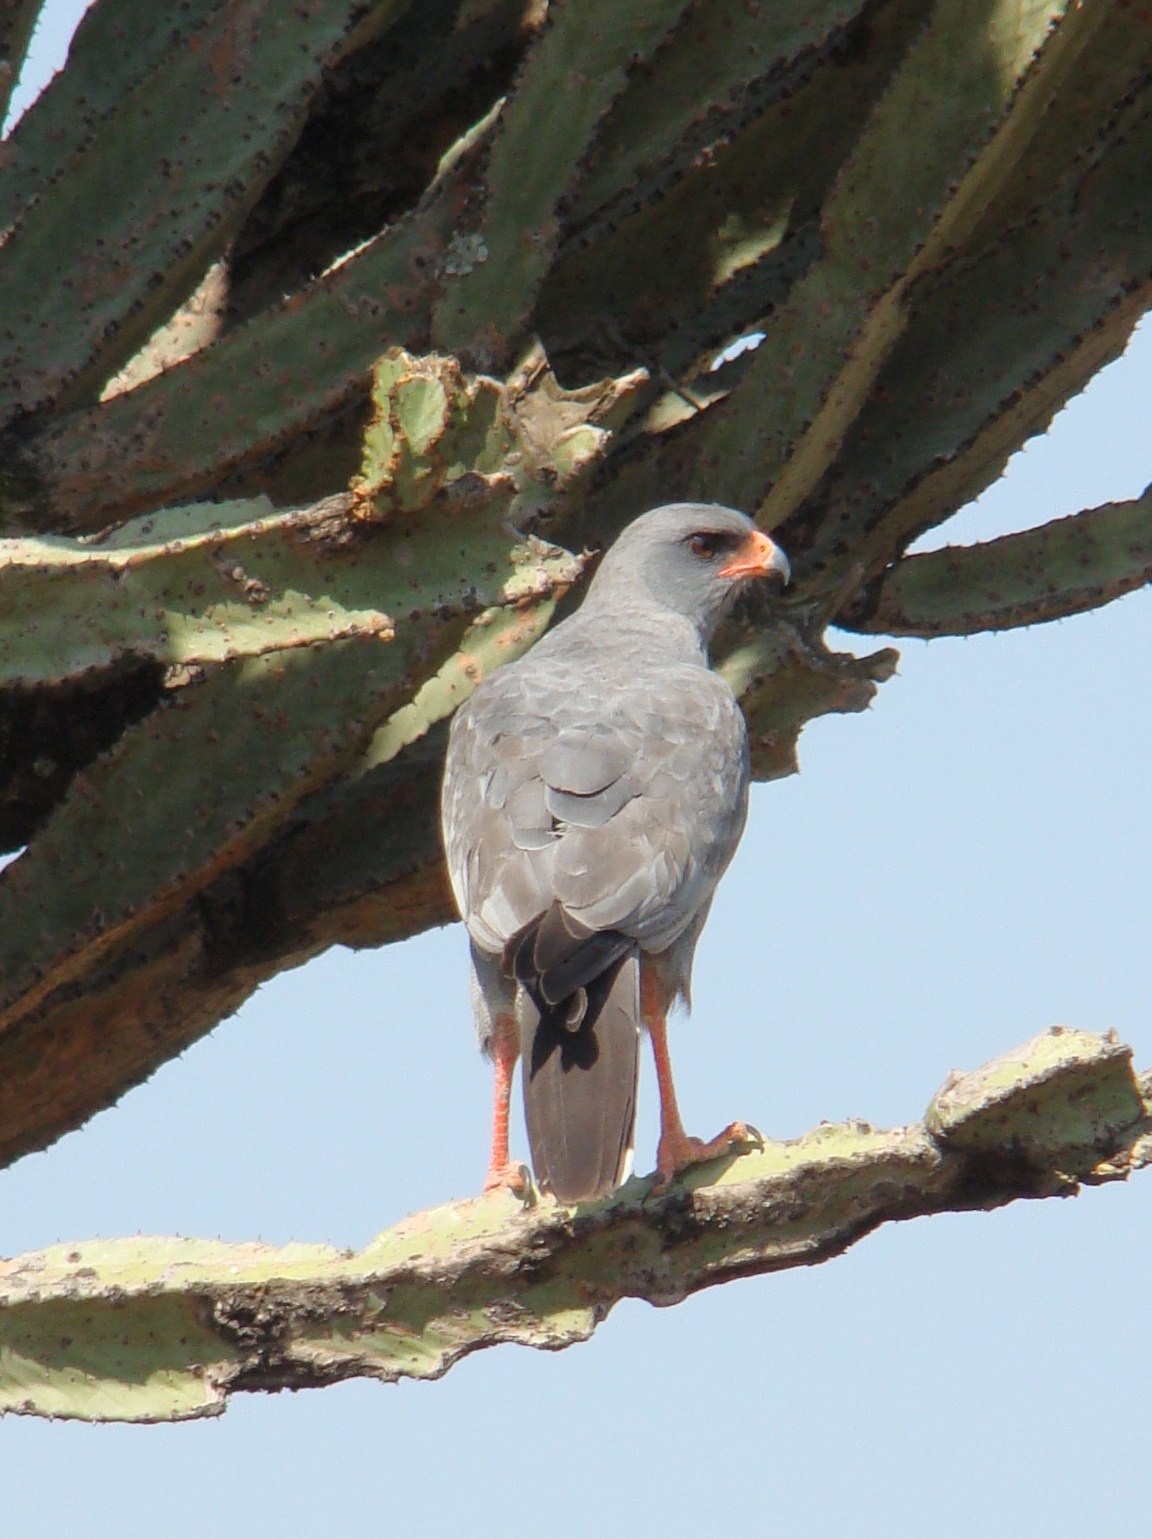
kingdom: Animalia
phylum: Chordata
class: Aves
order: Accipitriformes
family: Accipitridae
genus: Melierax
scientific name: Melierax metabates
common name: Dark chanting-goshawk
